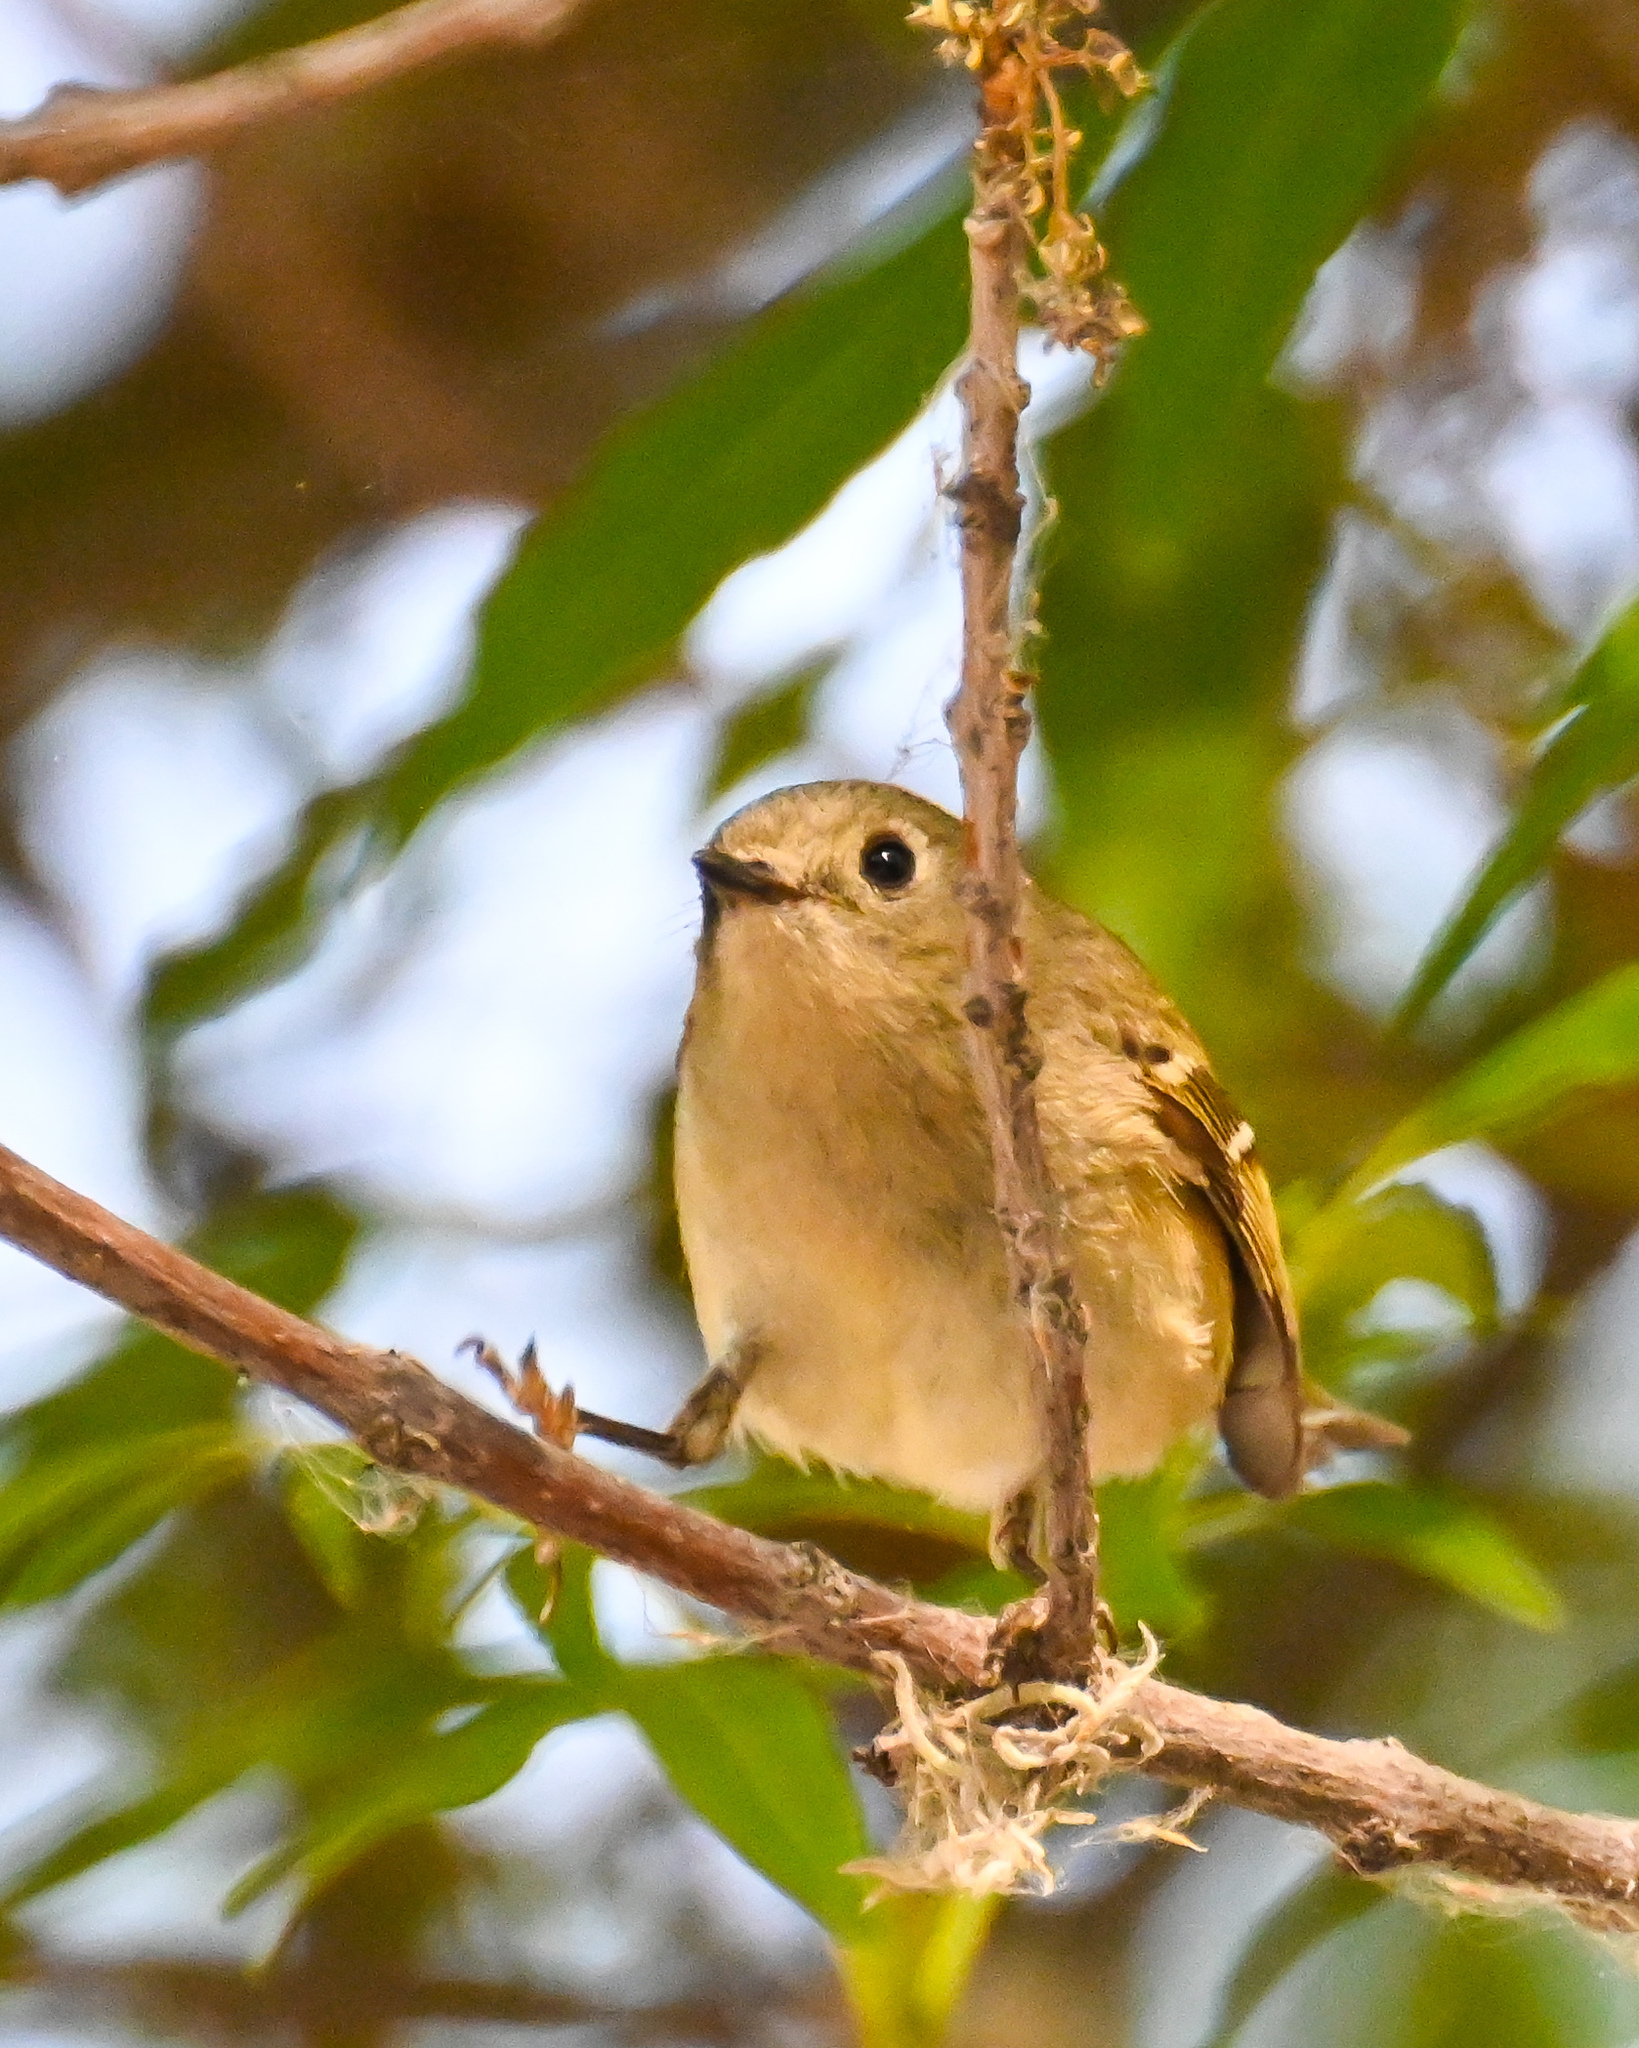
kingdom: Animalia
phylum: Chordata
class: Aves
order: Passeriformes
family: Regulidae
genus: Regulus
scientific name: Regulus calendula
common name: Ruby-crowned kinglet
